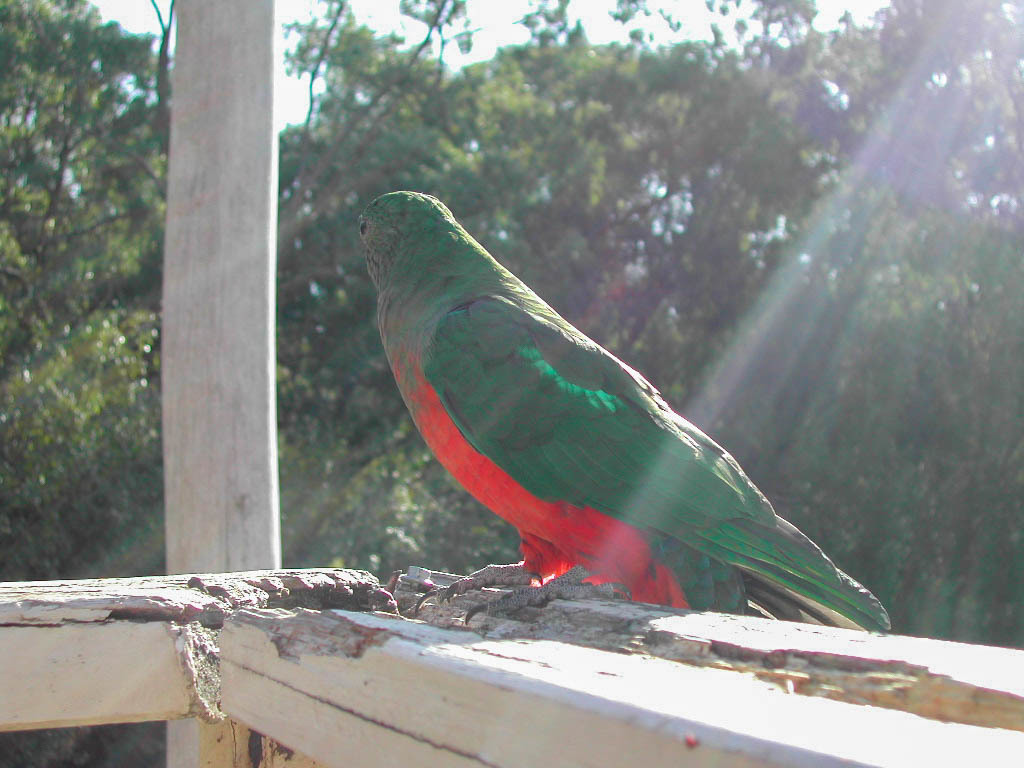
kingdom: Animalia
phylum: Chordata
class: Aves
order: Psittaciformes
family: Psittacidae
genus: Alisterus
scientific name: Alisterus scapularis
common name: Australian king parrot
